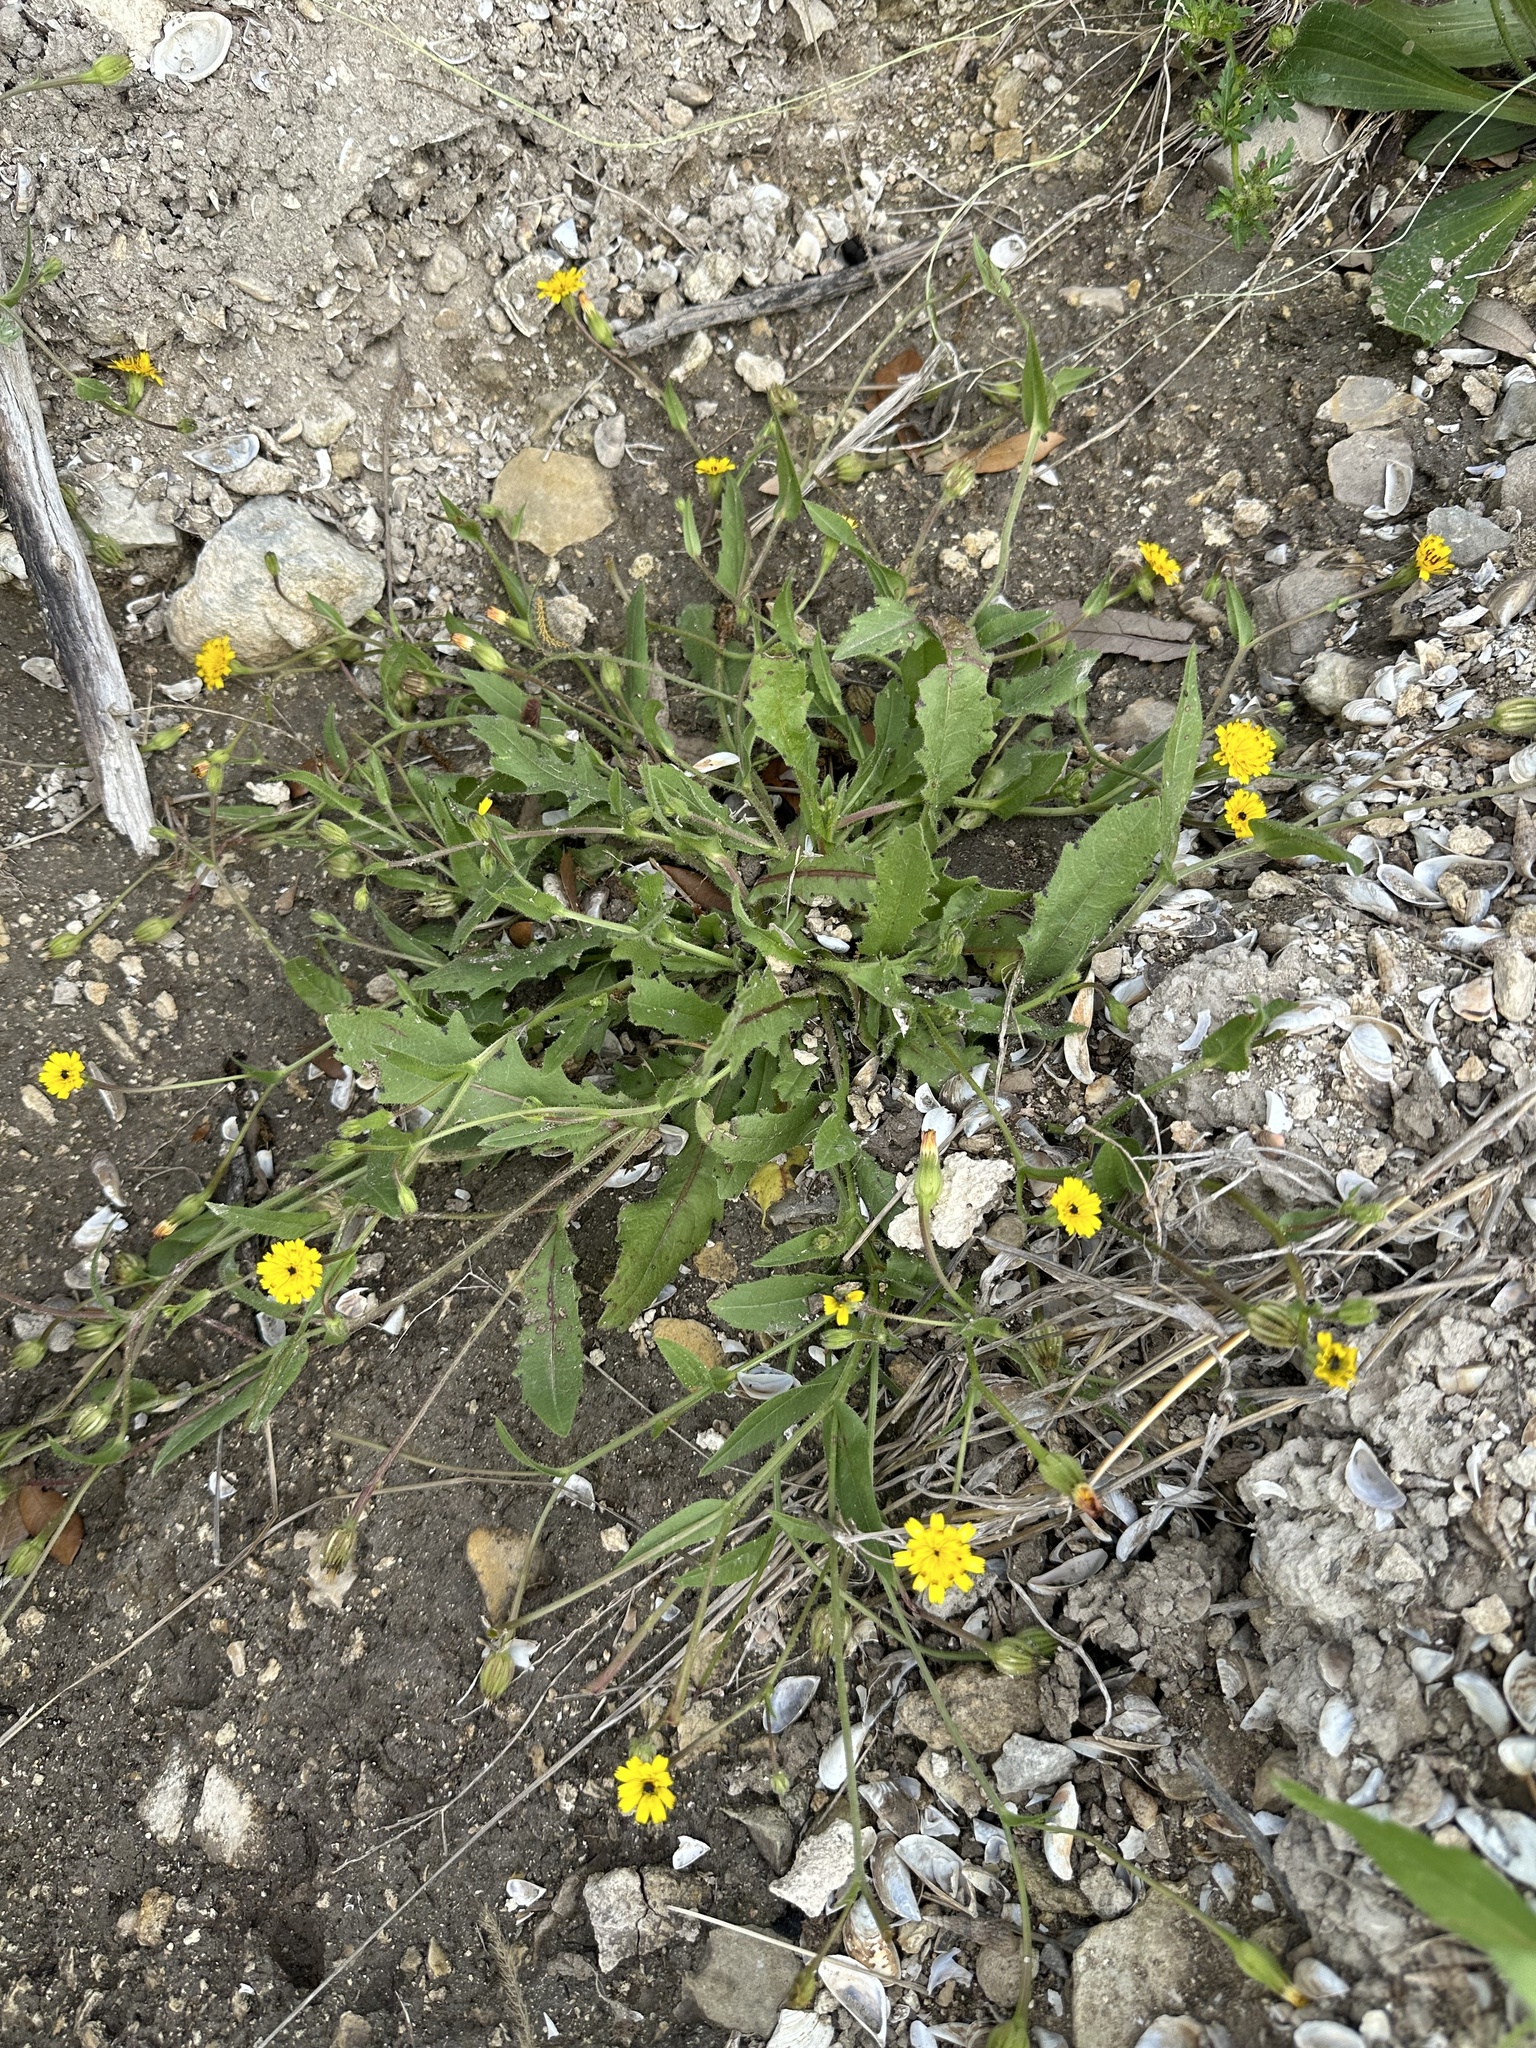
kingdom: Plantae
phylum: Tracheophyta
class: Magnoliopsida
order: Asterales
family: Asteraceae
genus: Hedypnois
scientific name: Hedypnois rhagadioloides
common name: Cretan weed
